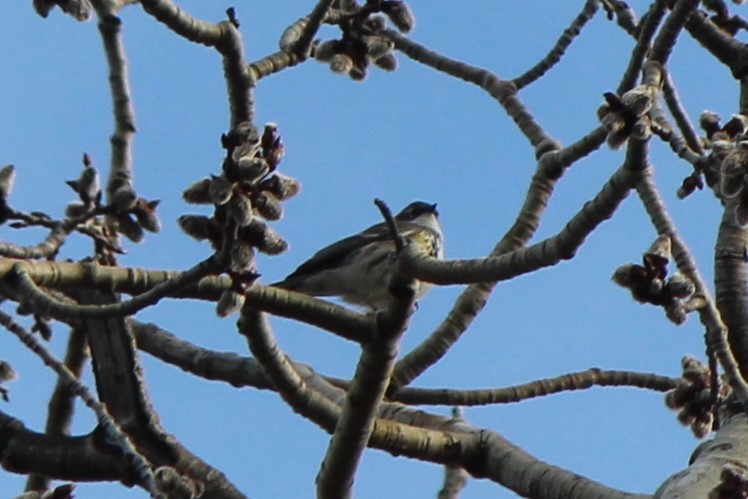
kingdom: Animalia
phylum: Chordata
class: Aves
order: Passeriformes
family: Parulidae
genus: Setophaga
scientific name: Setophaga coronata
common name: Myrtle warbler
